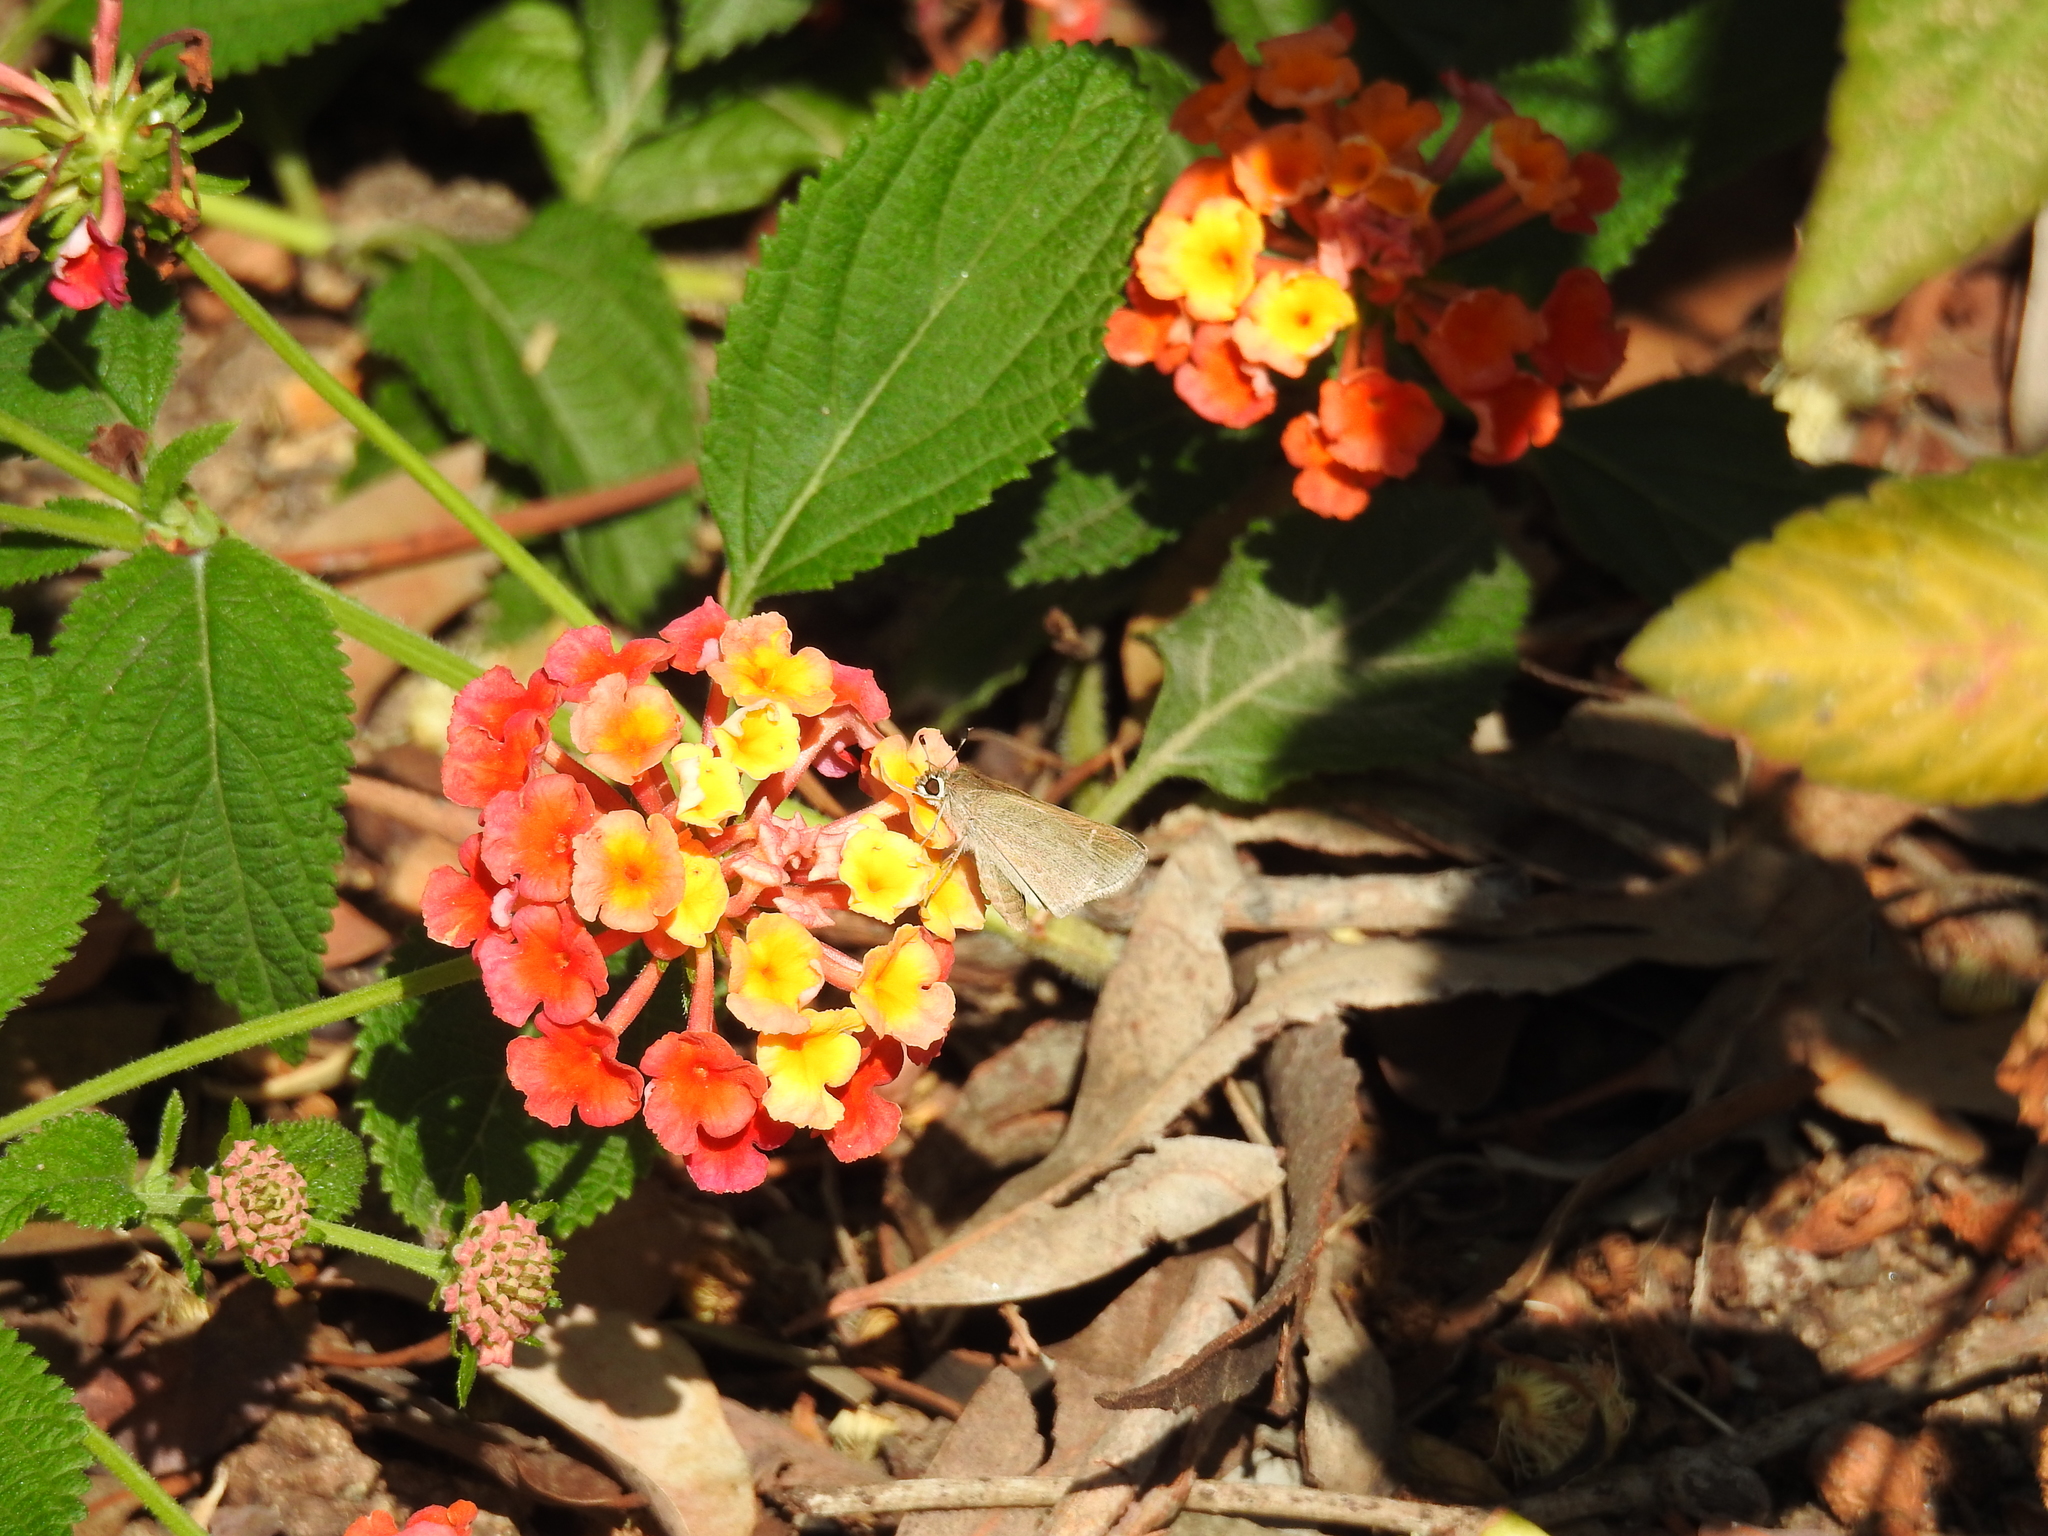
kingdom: Animalia
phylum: Arthropoda
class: Insecta
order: Lepidoptera
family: Hesperiidae
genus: Lerodea
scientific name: Lerodea eufala
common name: Eufala skipper
